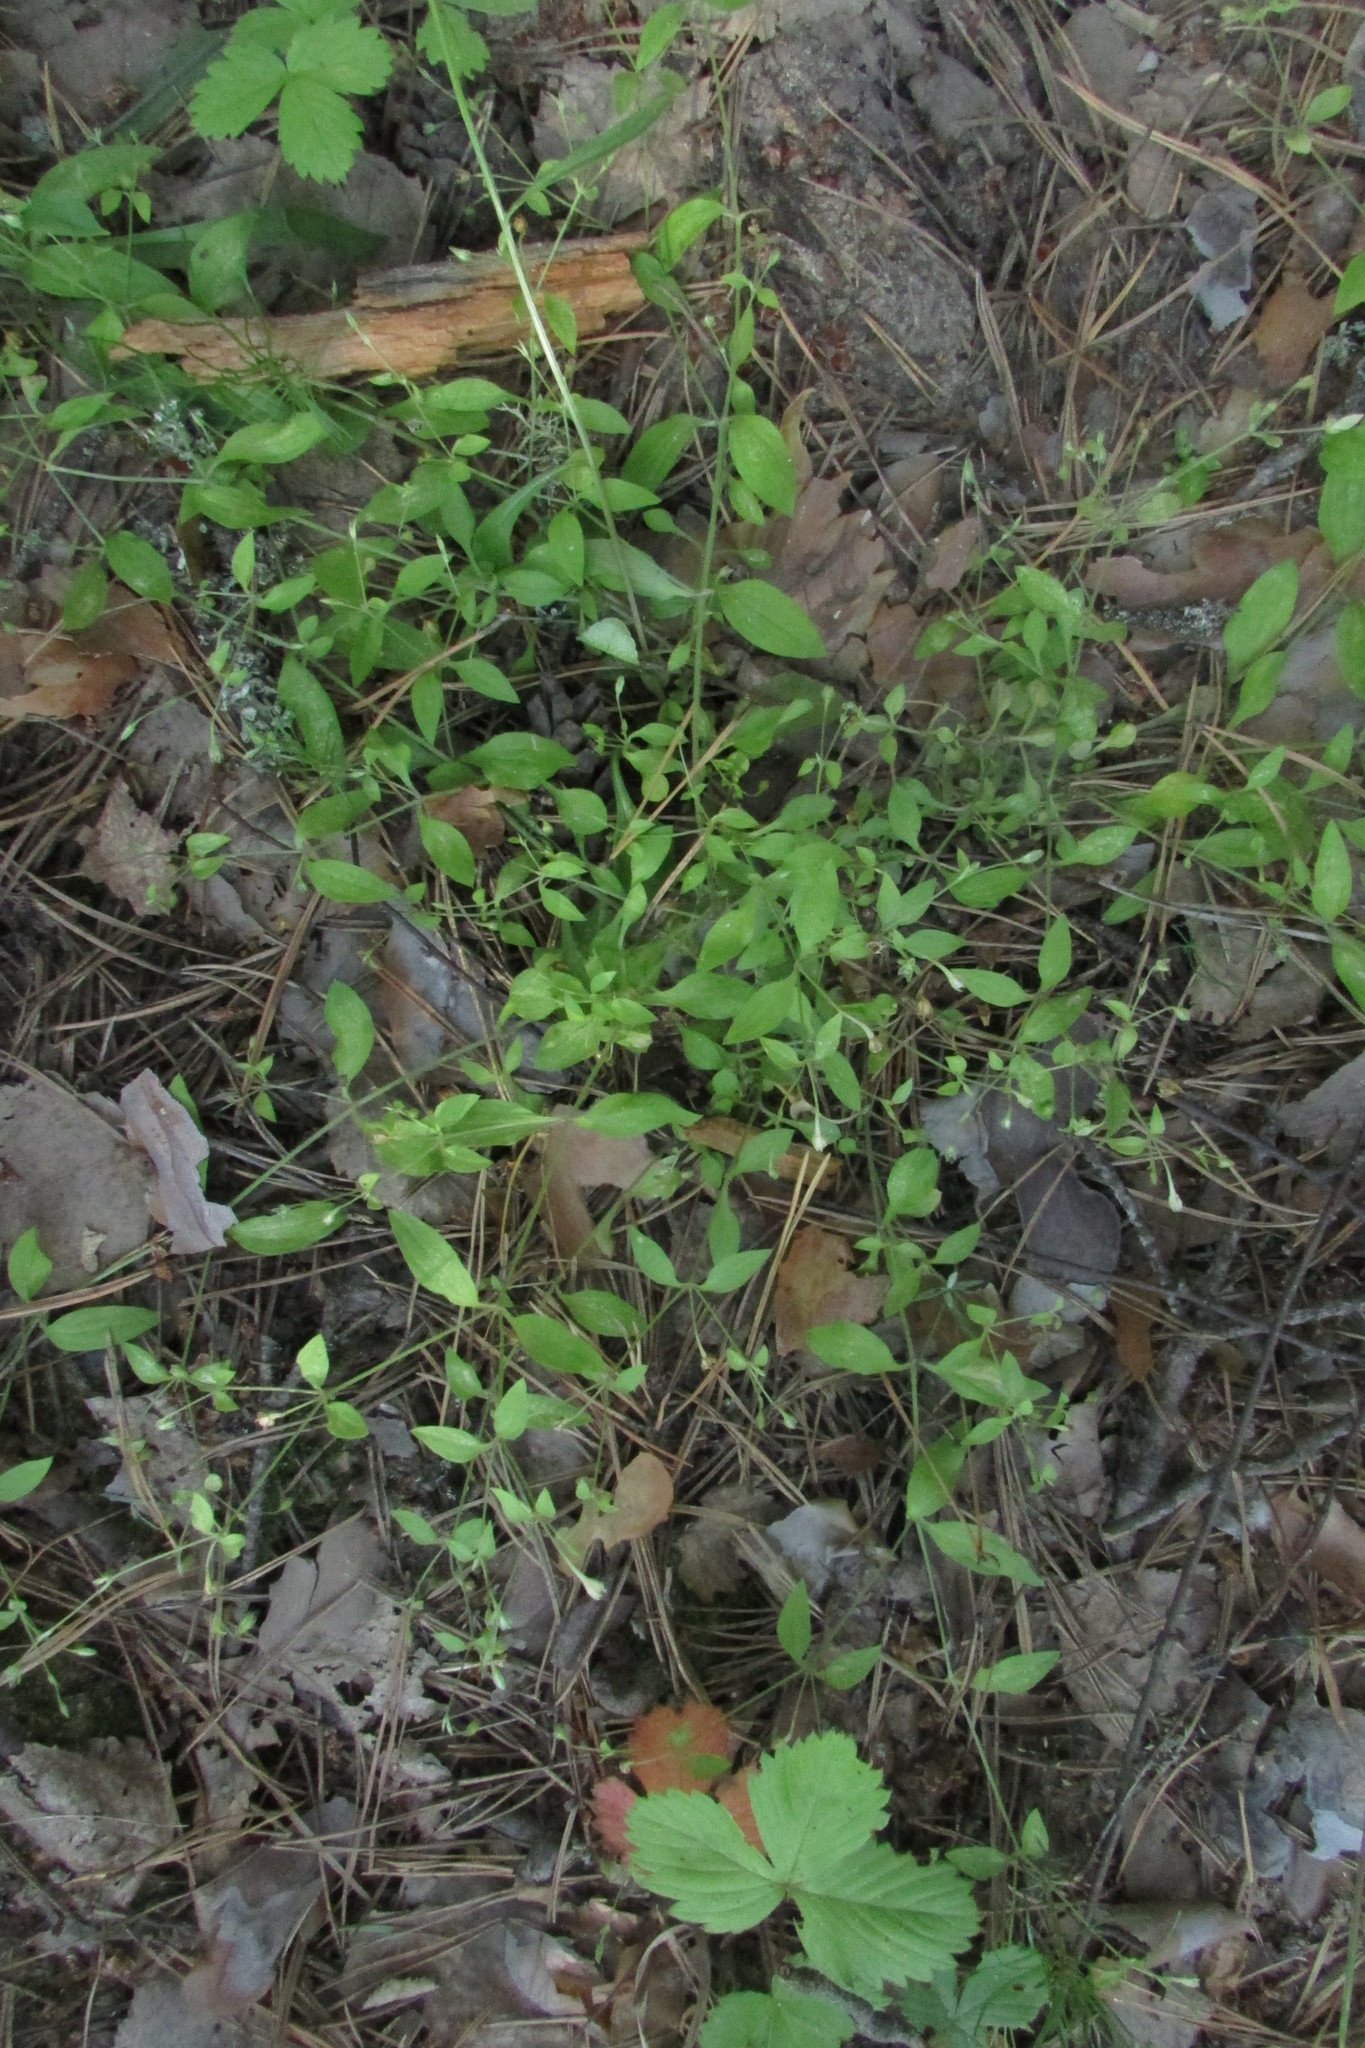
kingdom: Plantae
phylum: Tracheophyta
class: Magnoliopsida
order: Caryophyllales
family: Caryophyllaceae
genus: Moehringia
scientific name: Moehringia trinervia
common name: Three-nerved sandwort
